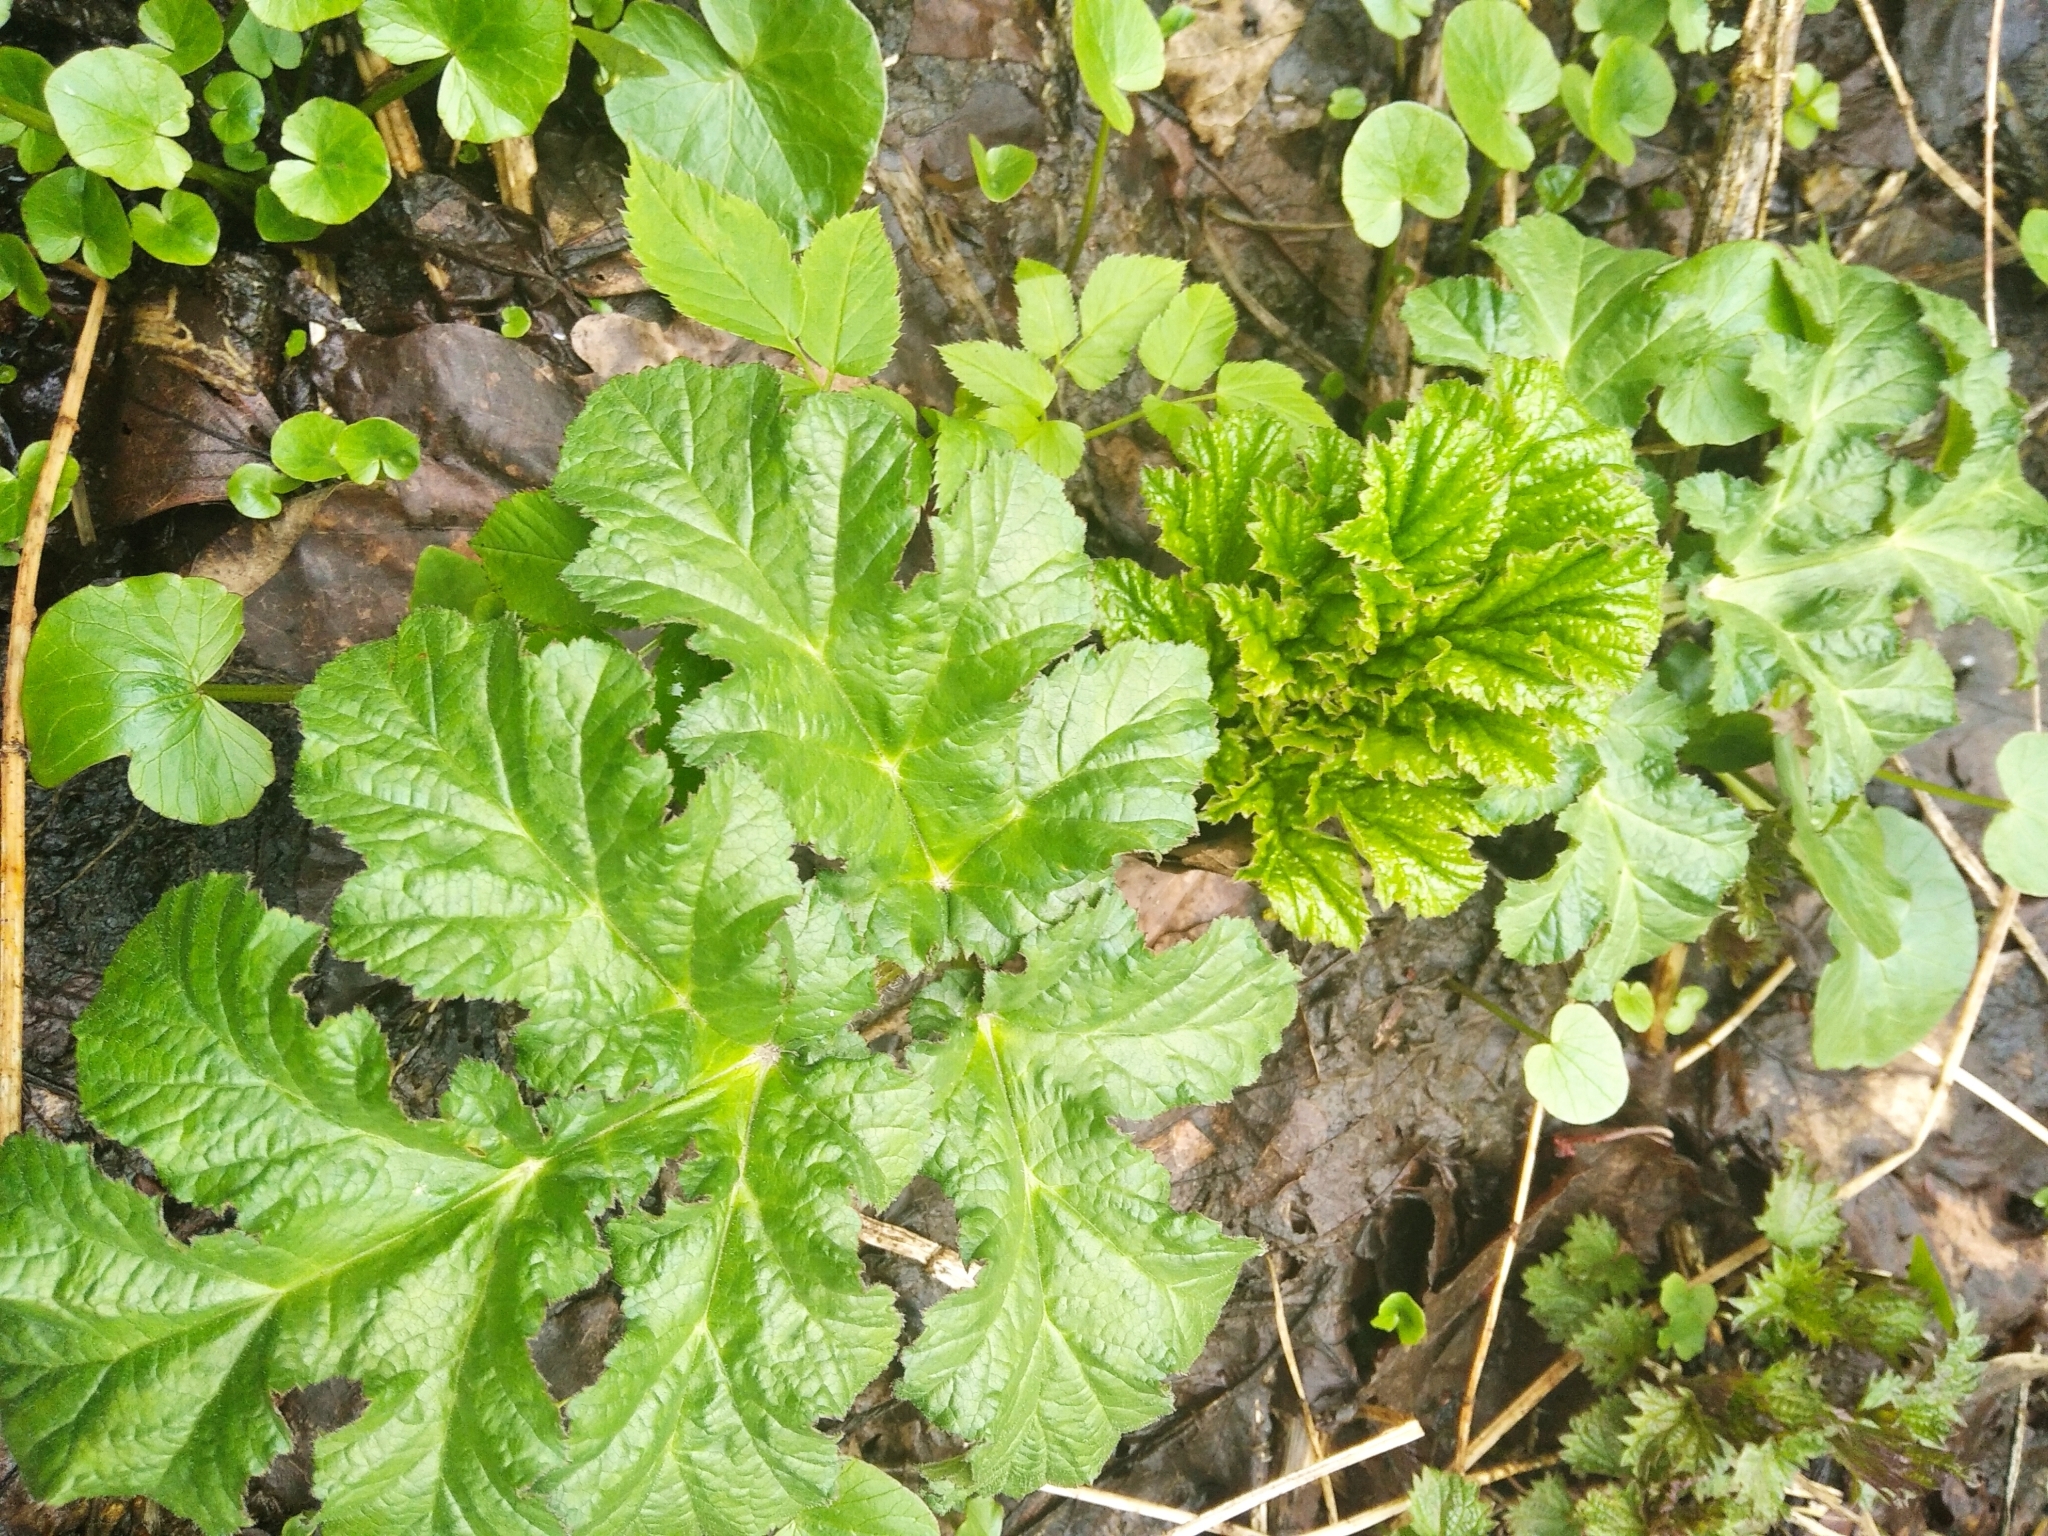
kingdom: Plantae
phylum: Tracheophyta
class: Magnoliopsida
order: Apiales
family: Apiaceae
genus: Heracleum
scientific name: Heracleum sosnowskyi
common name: Sosnowsky's hogweed
